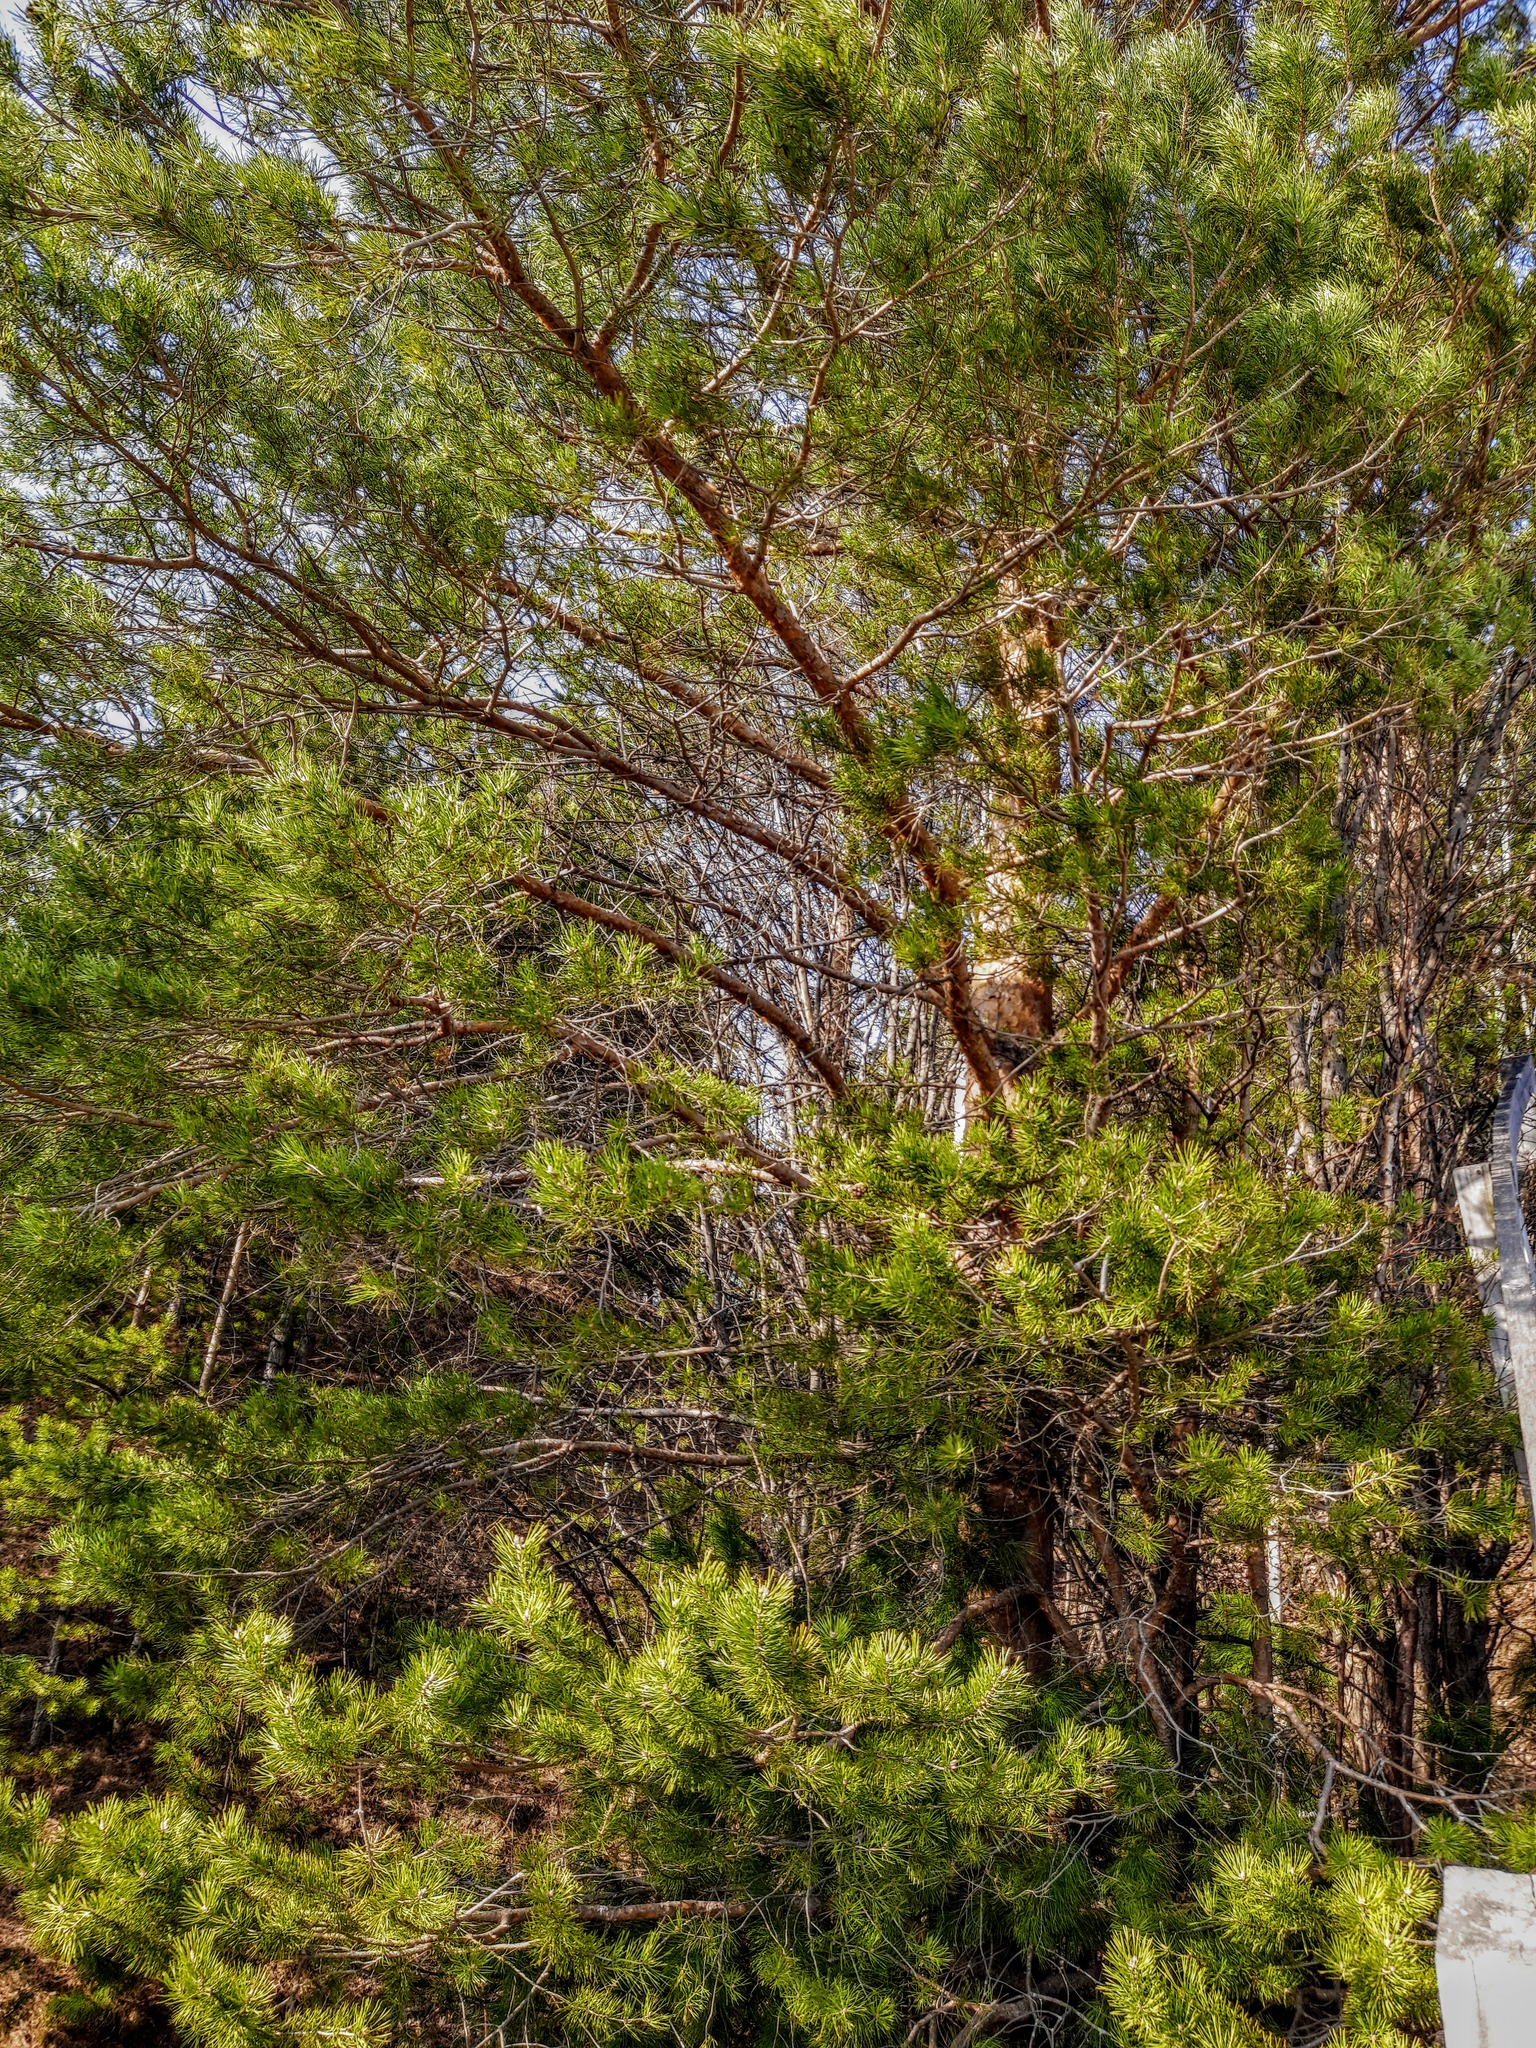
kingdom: Plantae
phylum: Tracheophyta
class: Pinopsida
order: Pinales
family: Pinaceae
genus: Pinus
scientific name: Pinus sylvestris
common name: Scots pine
